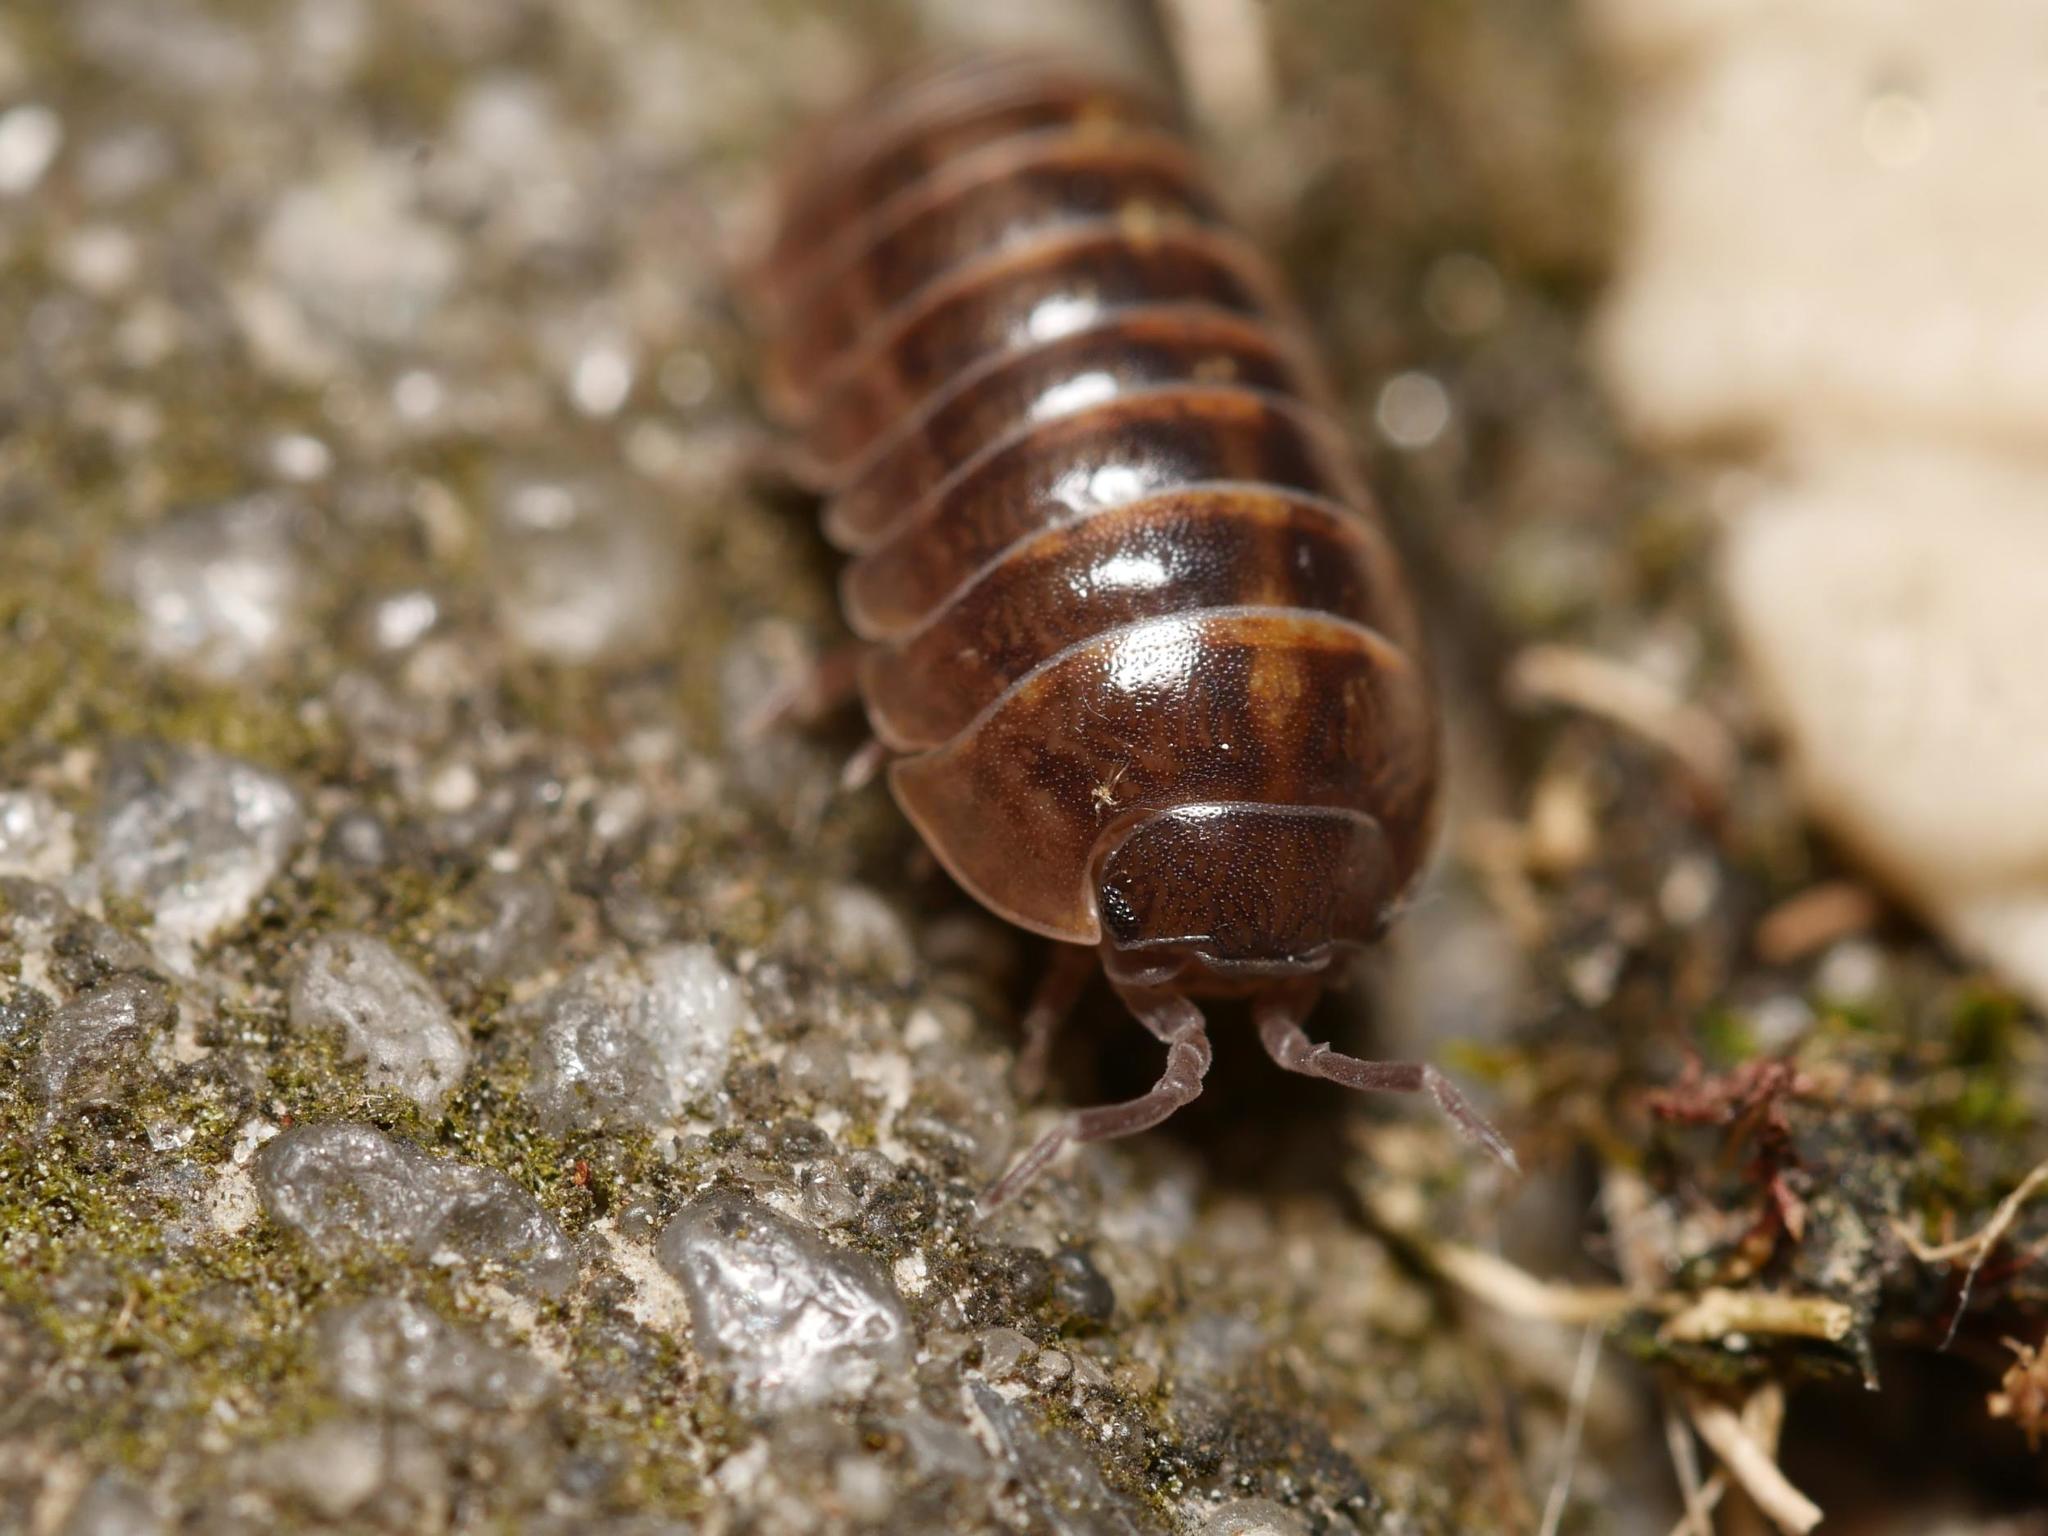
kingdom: Animalia
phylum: Arthropoda
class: Malacostraca
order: Isopoda
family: Armadillidiidae
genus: Armadillidium
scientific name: Armadillidium vulgare
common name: Common pill woodlouse
